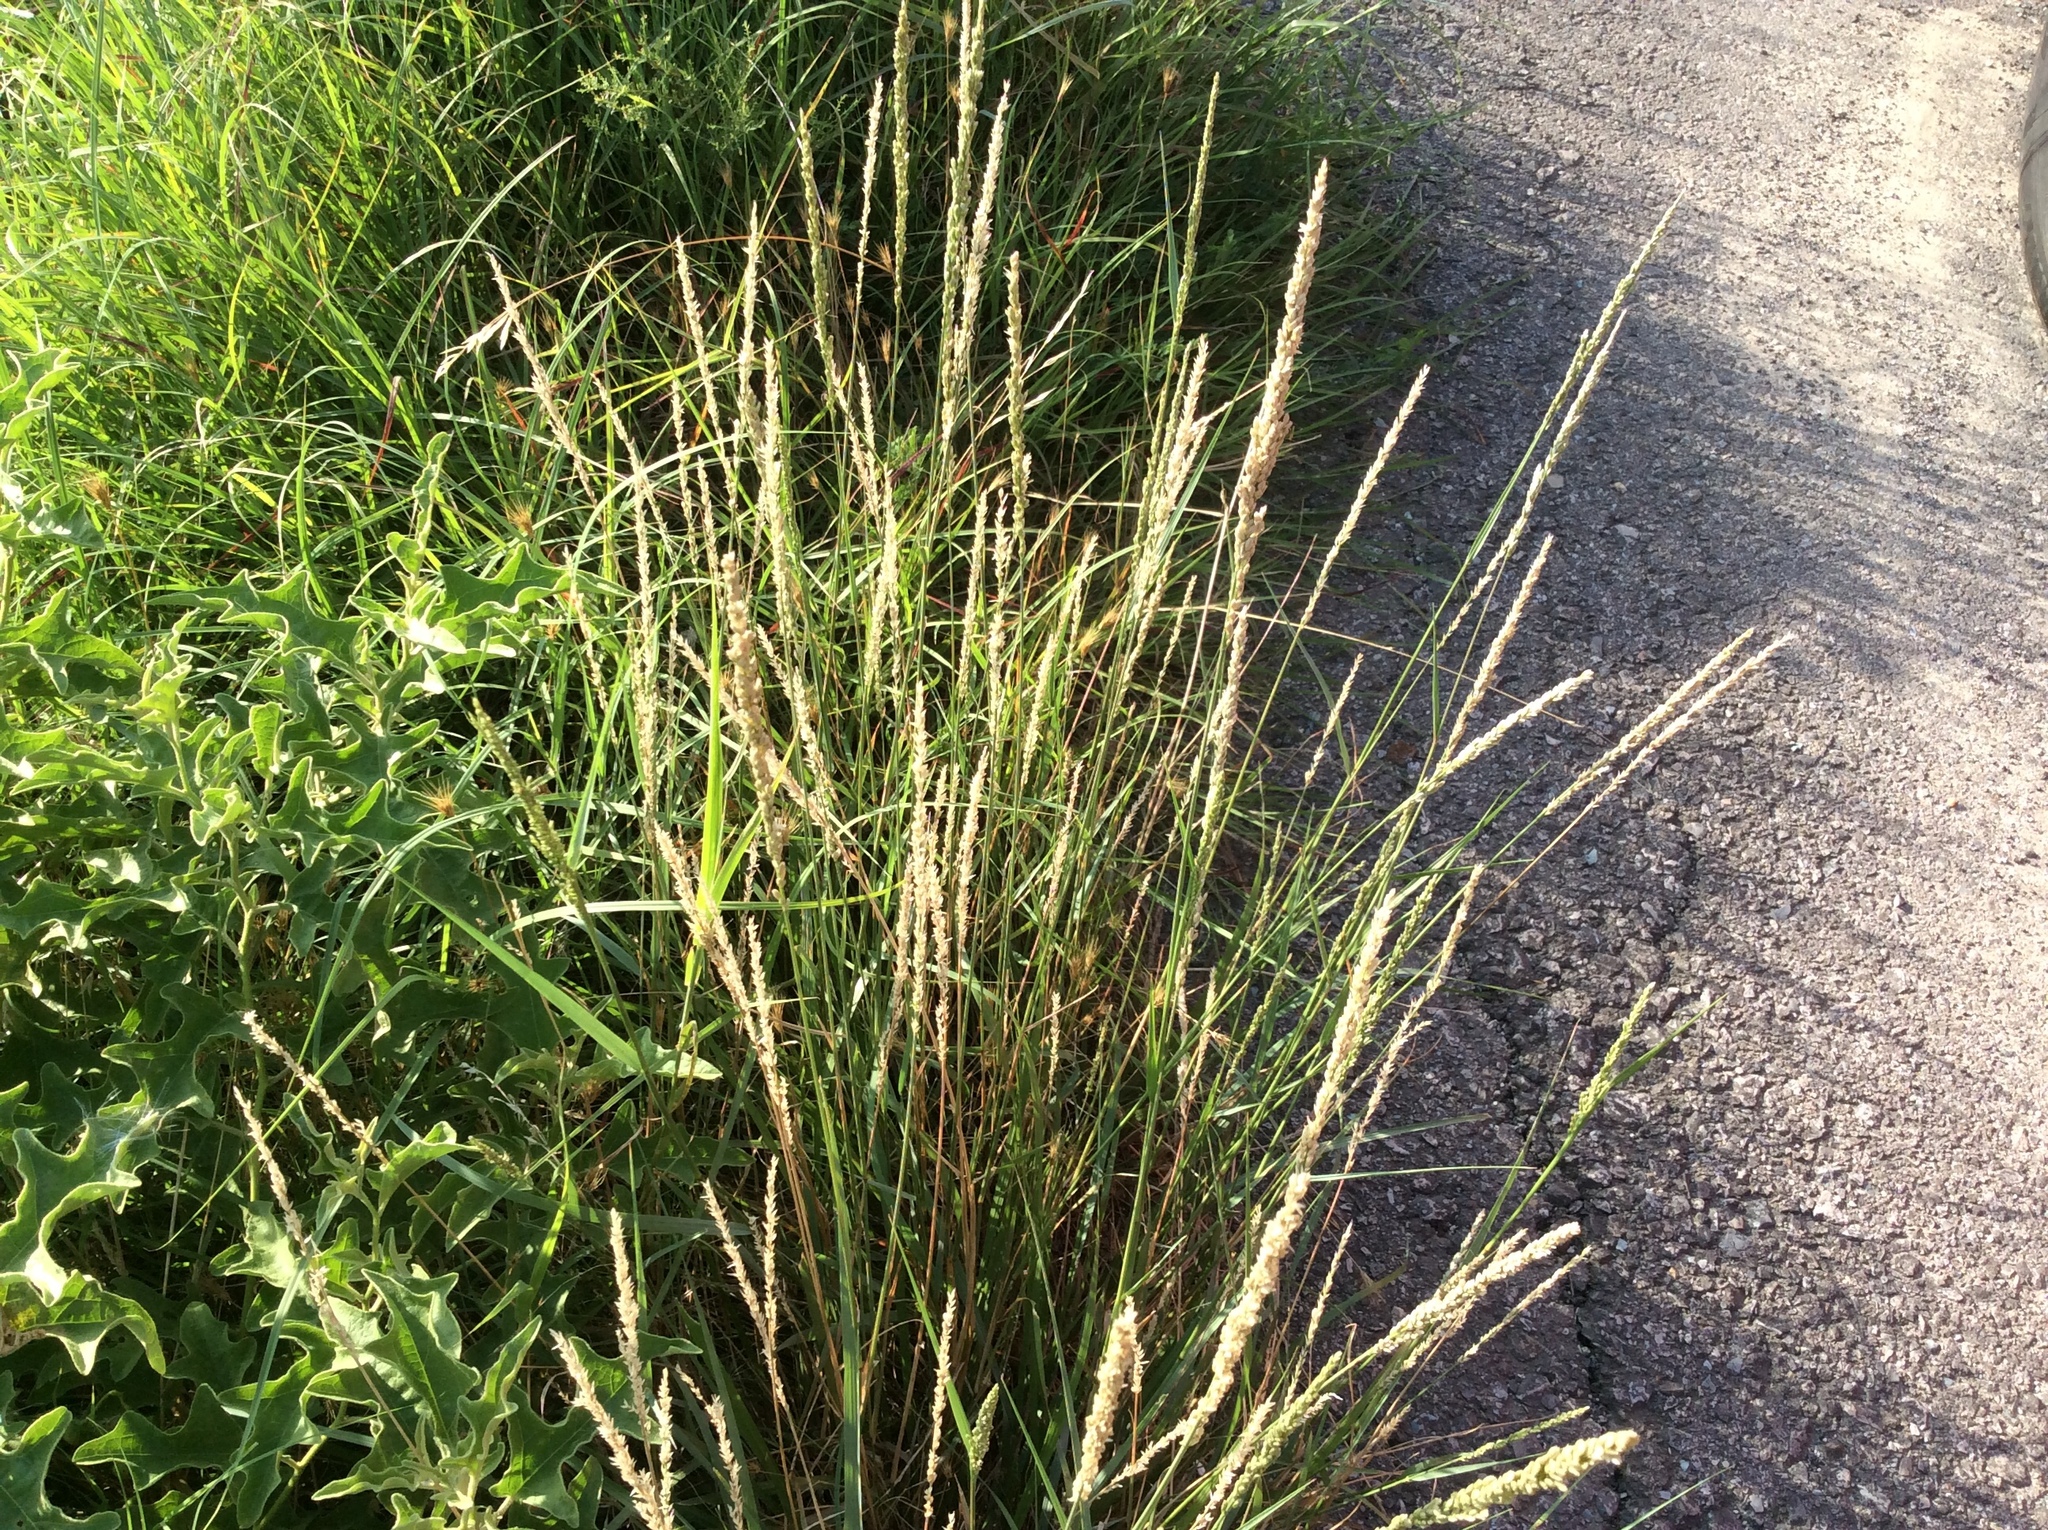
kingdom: Plantae
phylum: Tracheophyta
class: Liliopsida
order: Poales
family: Poaceae
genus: Tridens
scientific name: Tridens albescens
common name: White tridens
